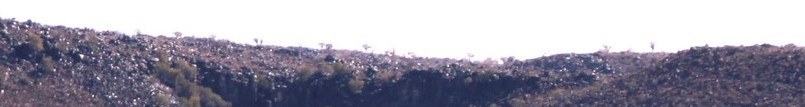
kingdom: Plantae
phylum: Tracheophyta
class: Liliopsida
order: Asparagales
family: Asphodelaceae
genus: Aloidendron
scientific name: Aloidendron dichotomum
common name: Quiver tree
